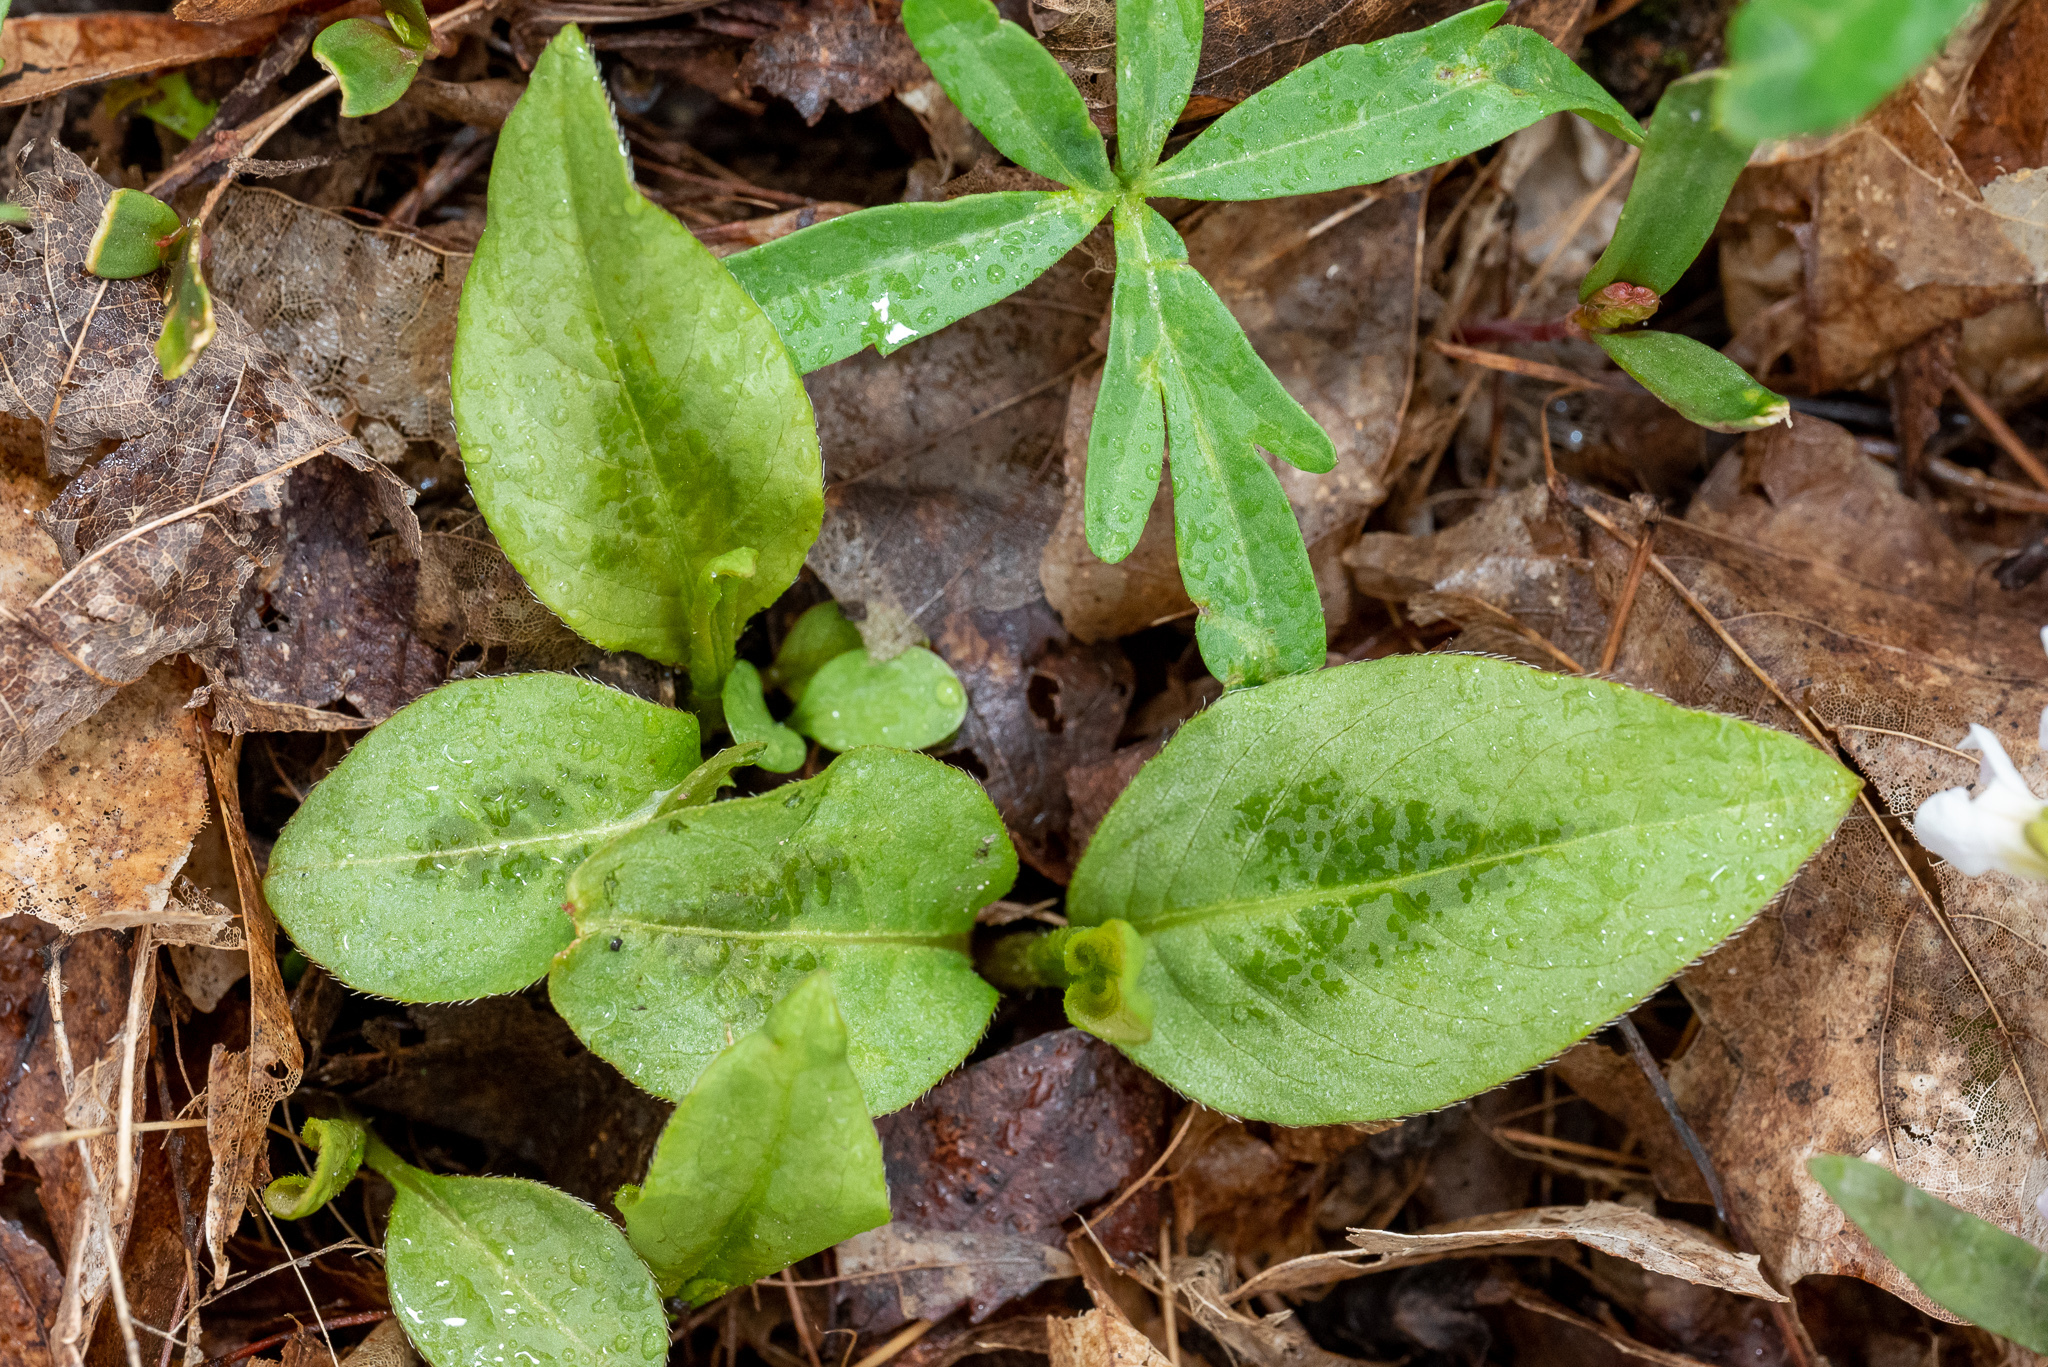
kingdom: Plantae
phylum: Tracheophyta
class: Magnoliopsida
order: Caryophyllales
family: Polygonaceae
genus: Persicaria
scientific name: Persicaria virginiana
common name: Jumpseed
